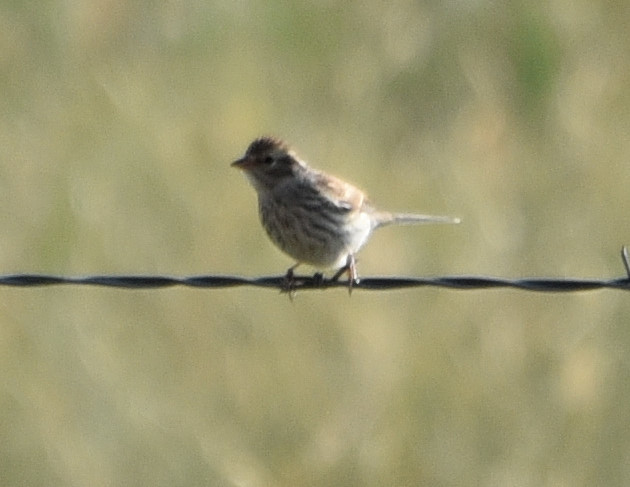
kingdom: Animalia
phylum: Chordata
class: Aves
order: Passeriformes
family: Passerellidae
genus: Spizella
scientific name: Spizella passerina
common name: Chipping sparrow
